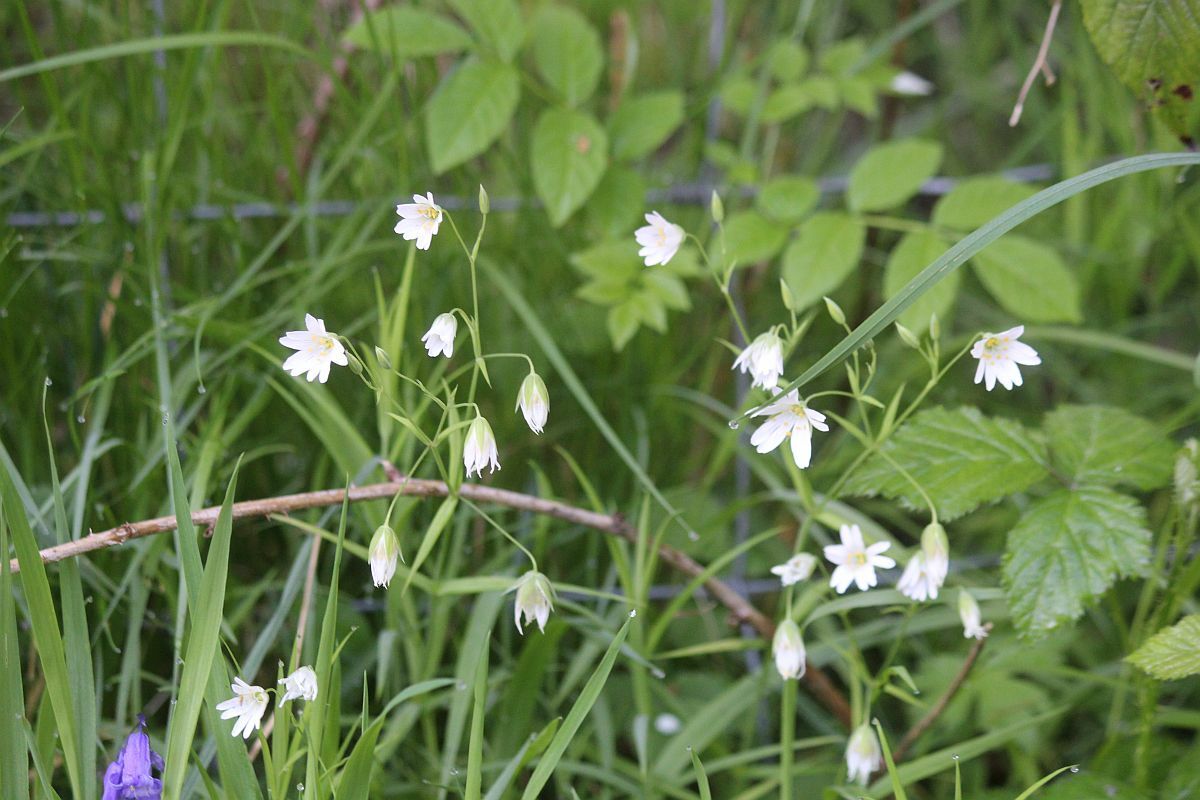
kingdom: Plantae
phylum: Tracheophyta
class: Magnoliopsida
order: Caryophyllales
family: Caryophyllaceae
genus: Rabelera
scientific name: Rabelera holostea
